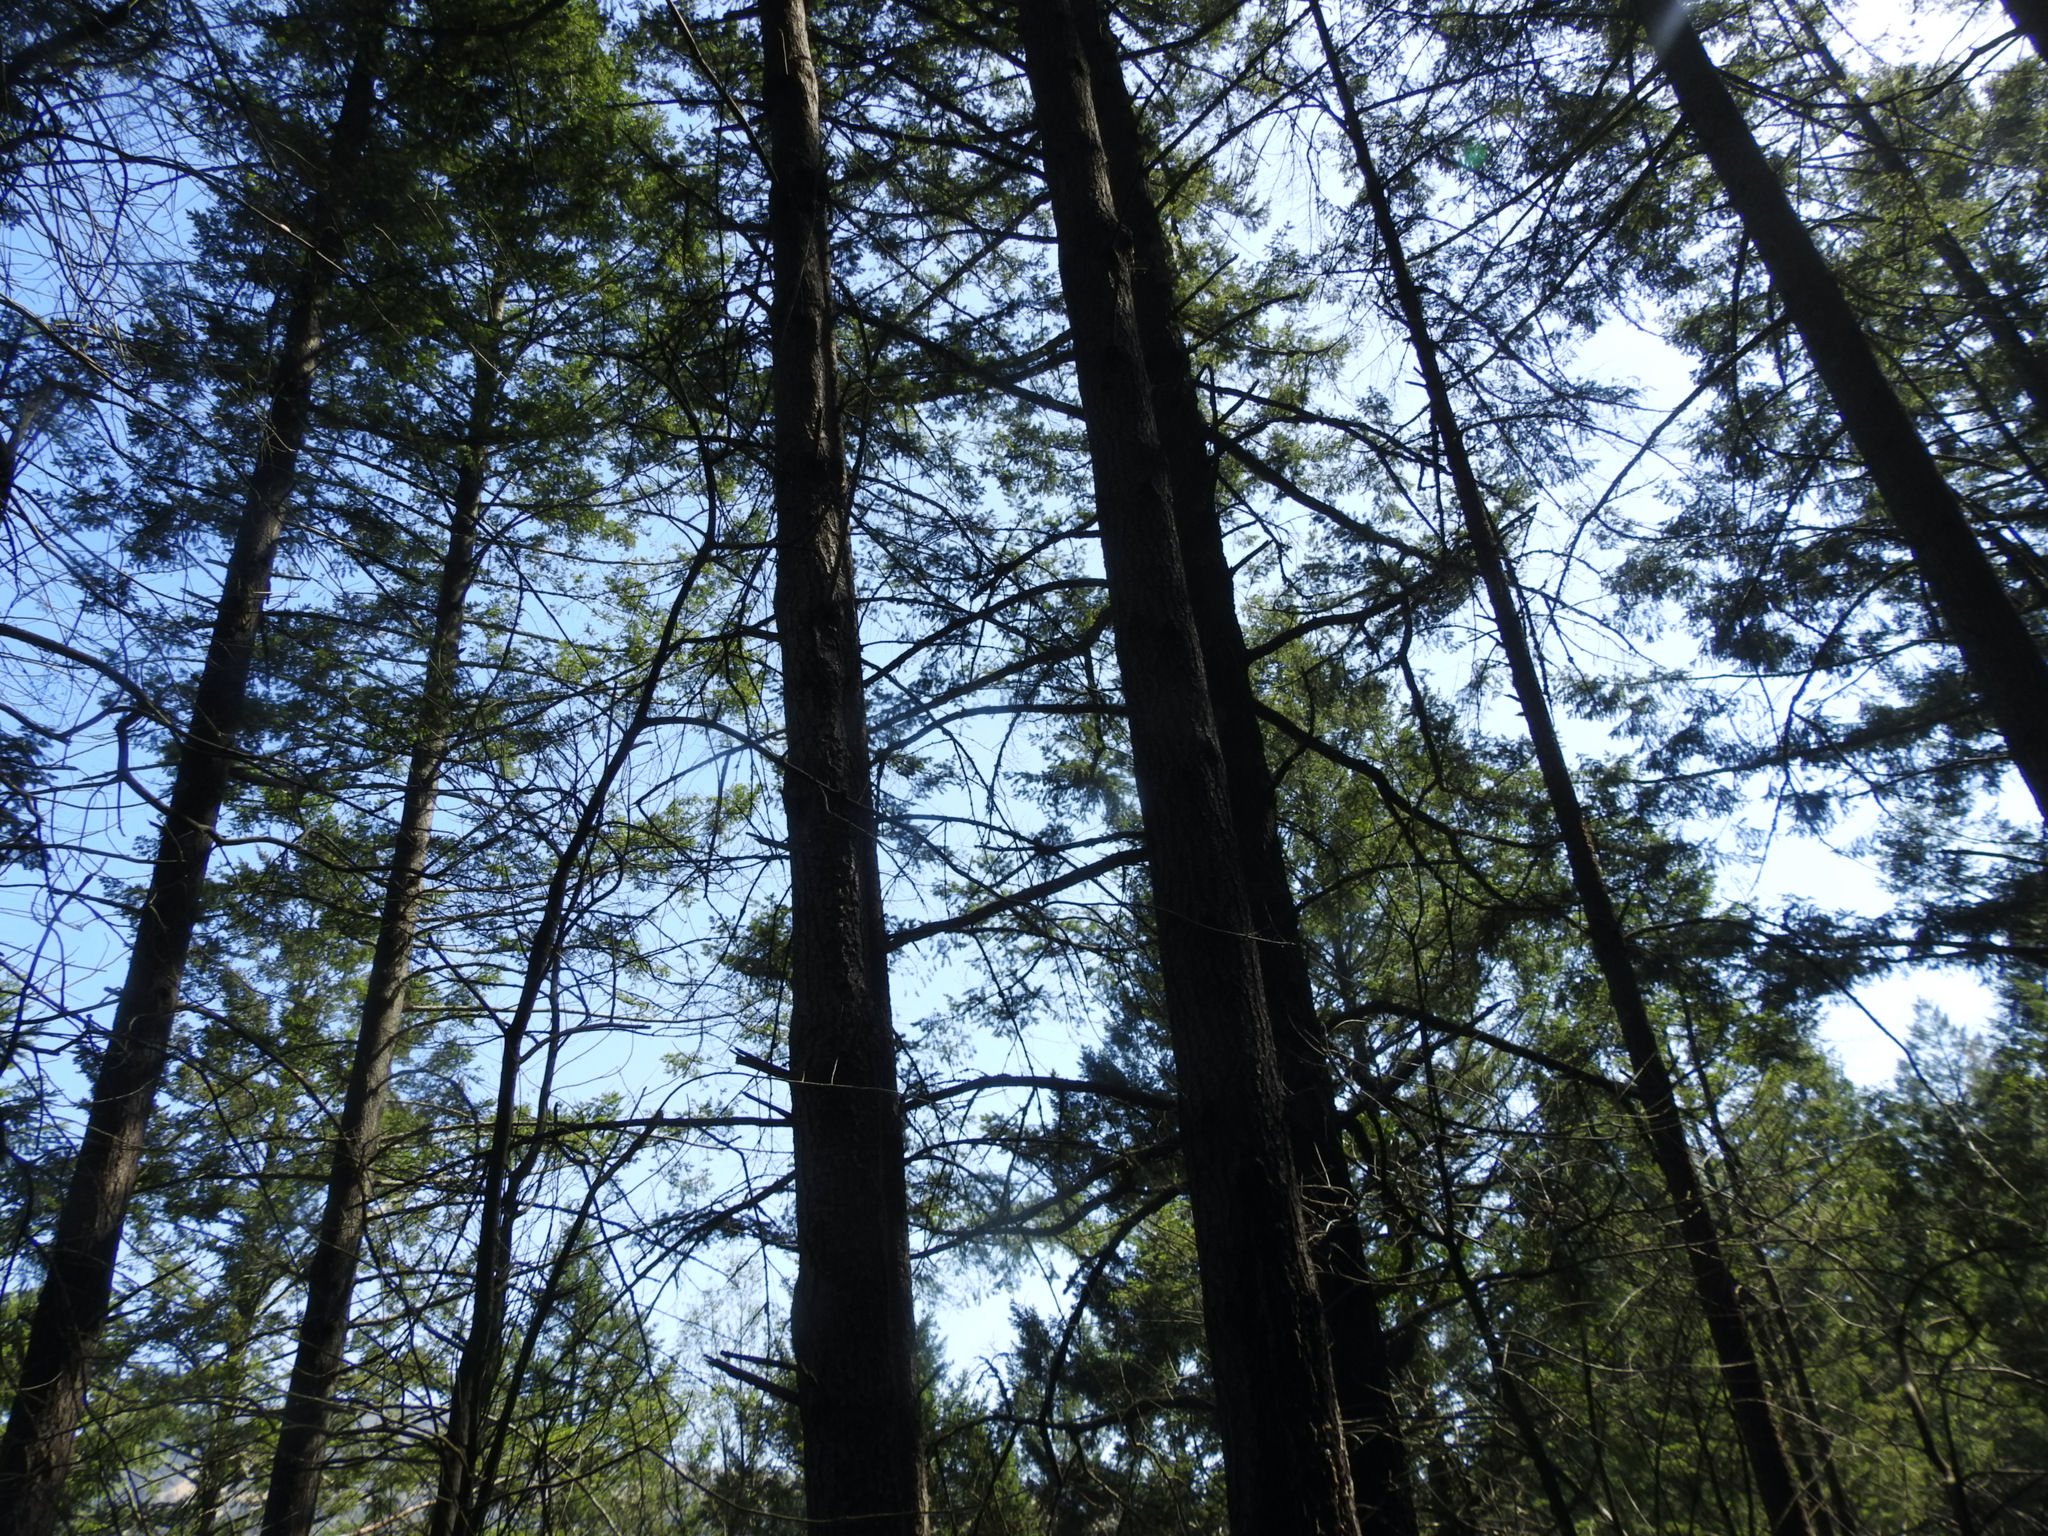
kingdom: Plantae
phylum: Tracheophyta
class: Pinopsida
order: Pinales
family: Pinaceae
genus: Pseudotsuga
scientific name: Pseudotsuga menziesii
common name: Douglas fir
